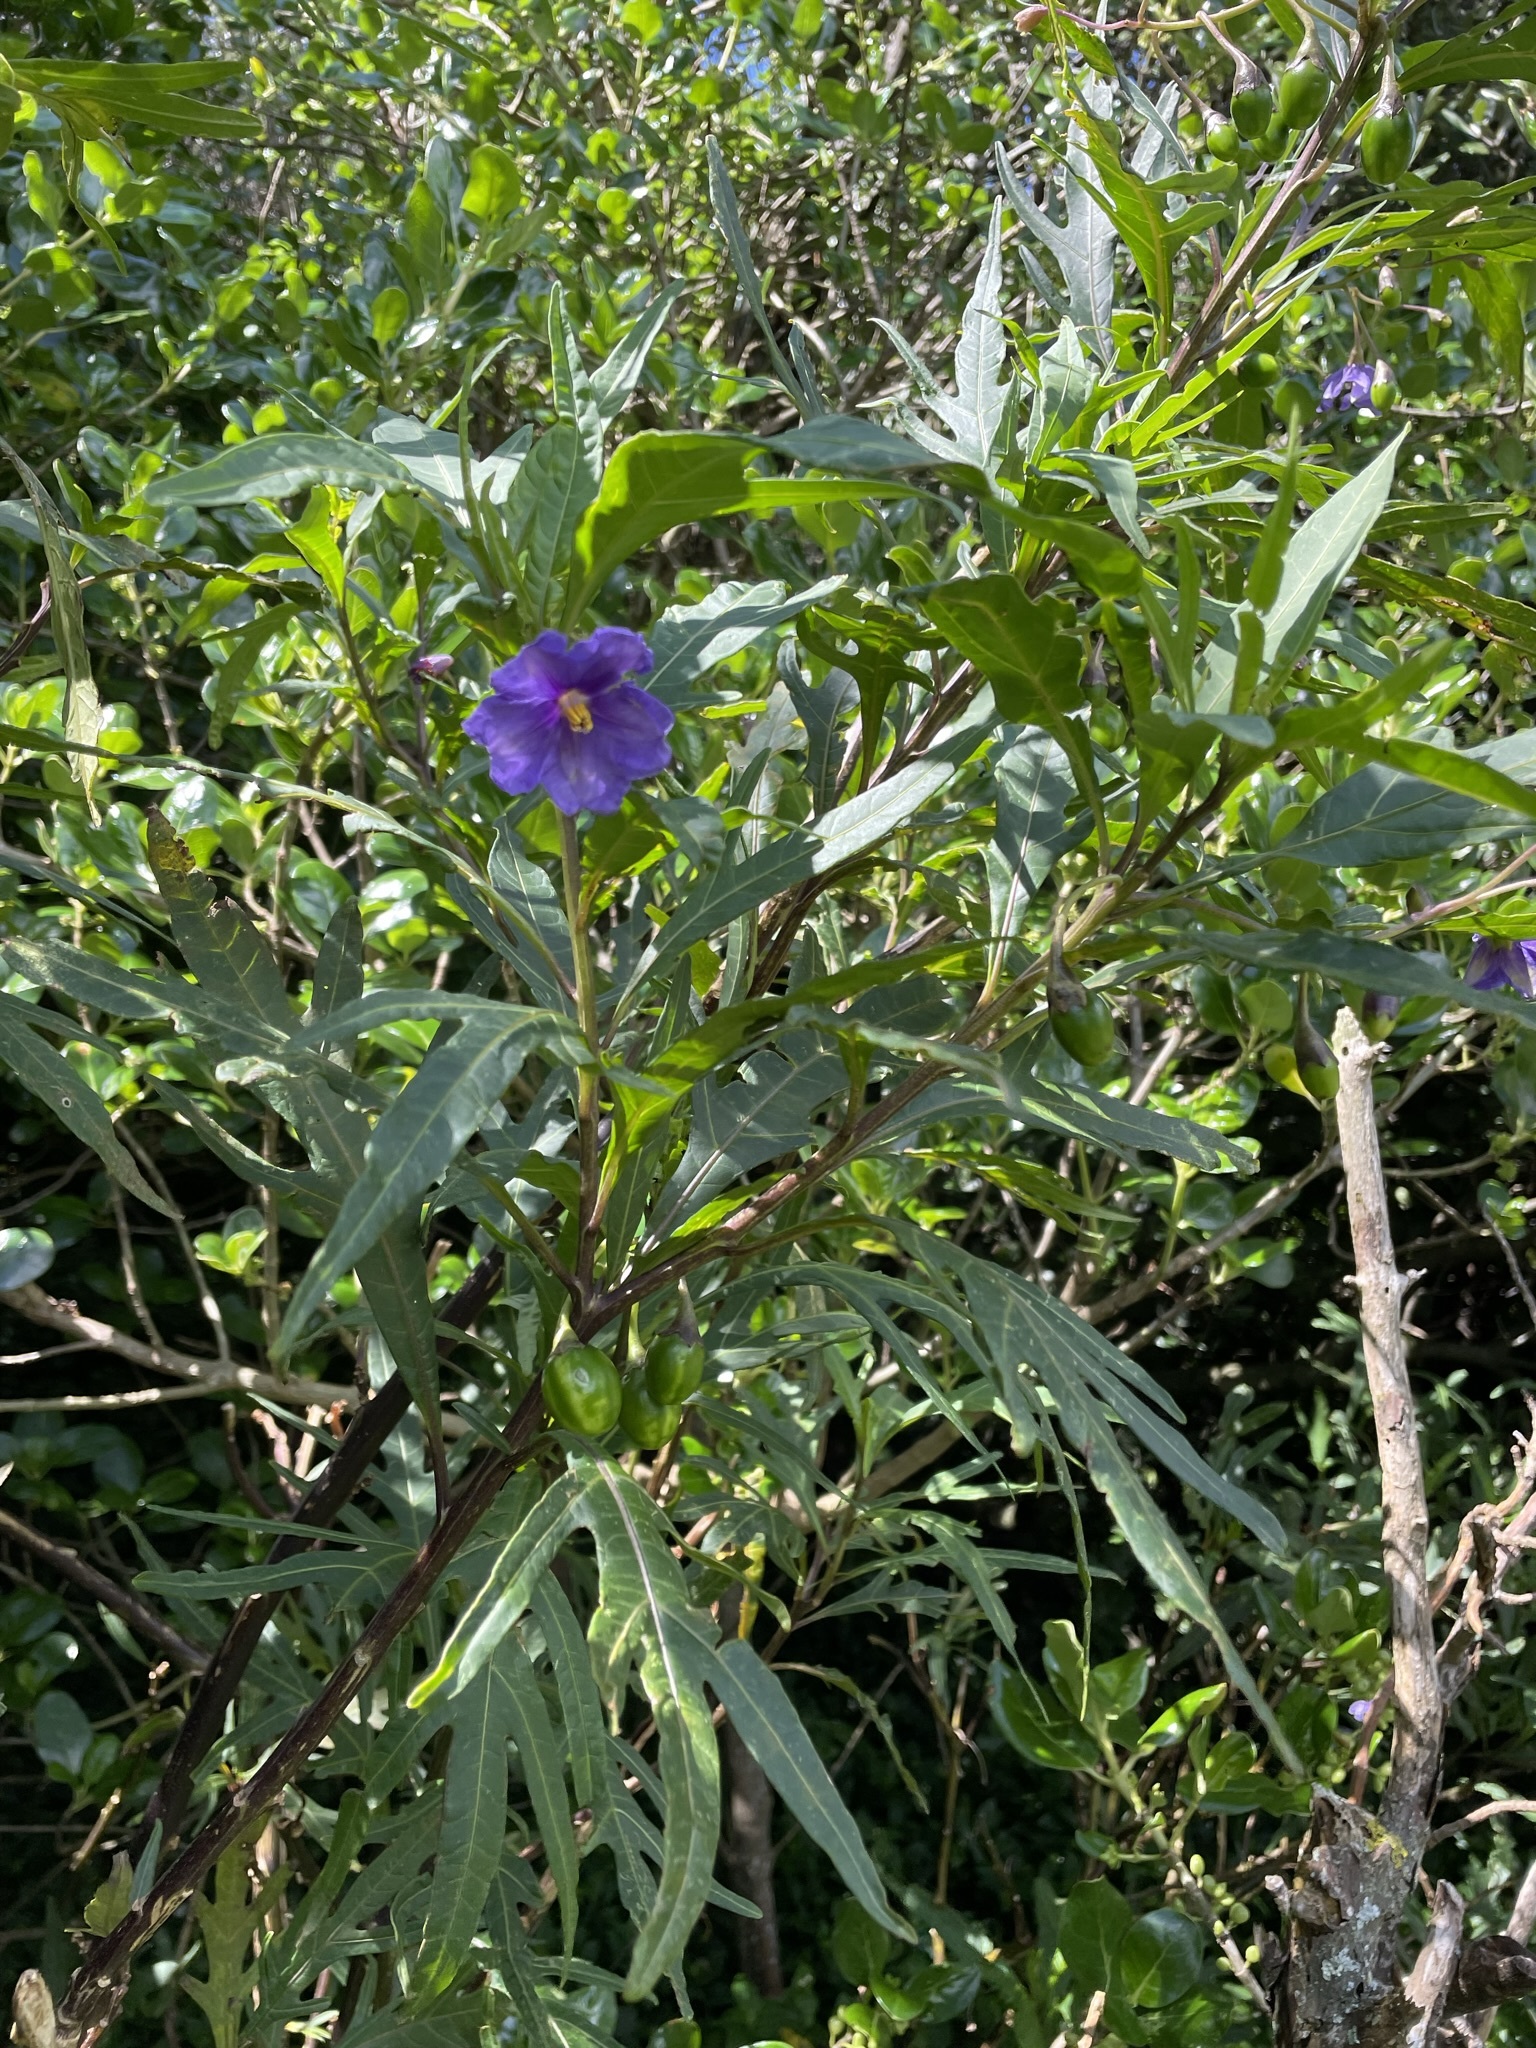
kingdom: Plantae
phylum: Tracheophyta
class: Magnoliopsida
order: Solanales
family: Solanaceae
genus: Solanum
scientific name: Solanum laciniatum
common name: Kangaroo-apple
